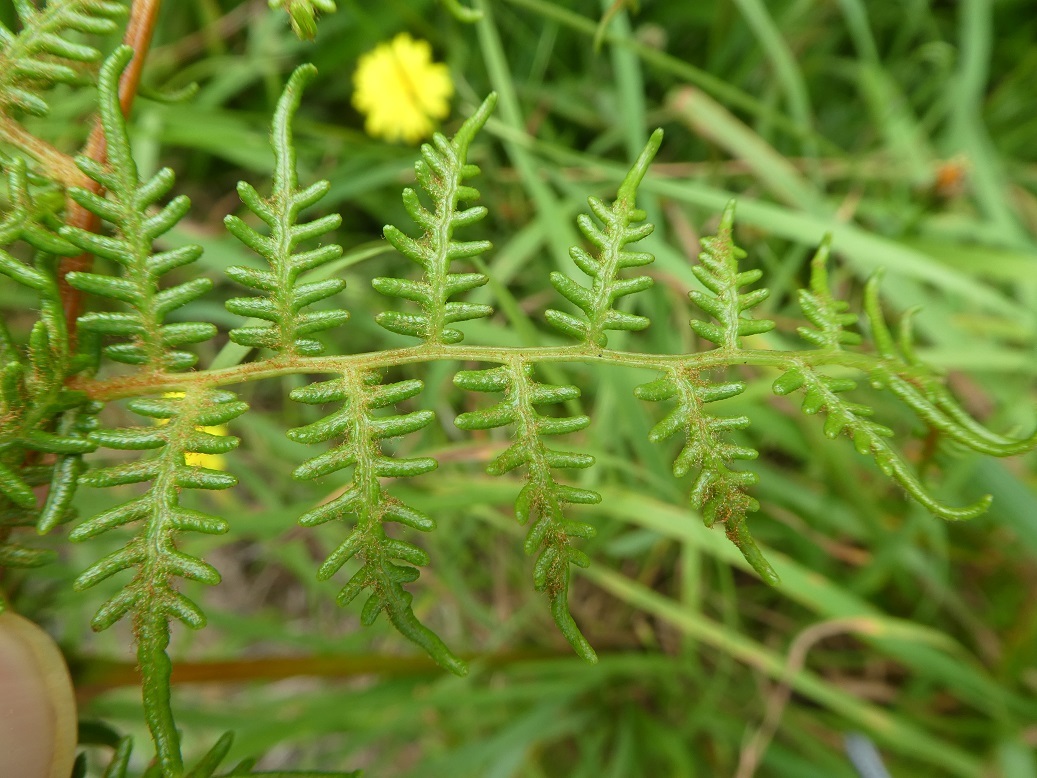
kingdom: Plantae
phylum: Tracheophyta
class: Polypodiopsida
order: Polypodiales
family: Dennstaedtiaceae
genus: Pteridium
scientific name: Pteridium esculentum
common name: Bracken fern
